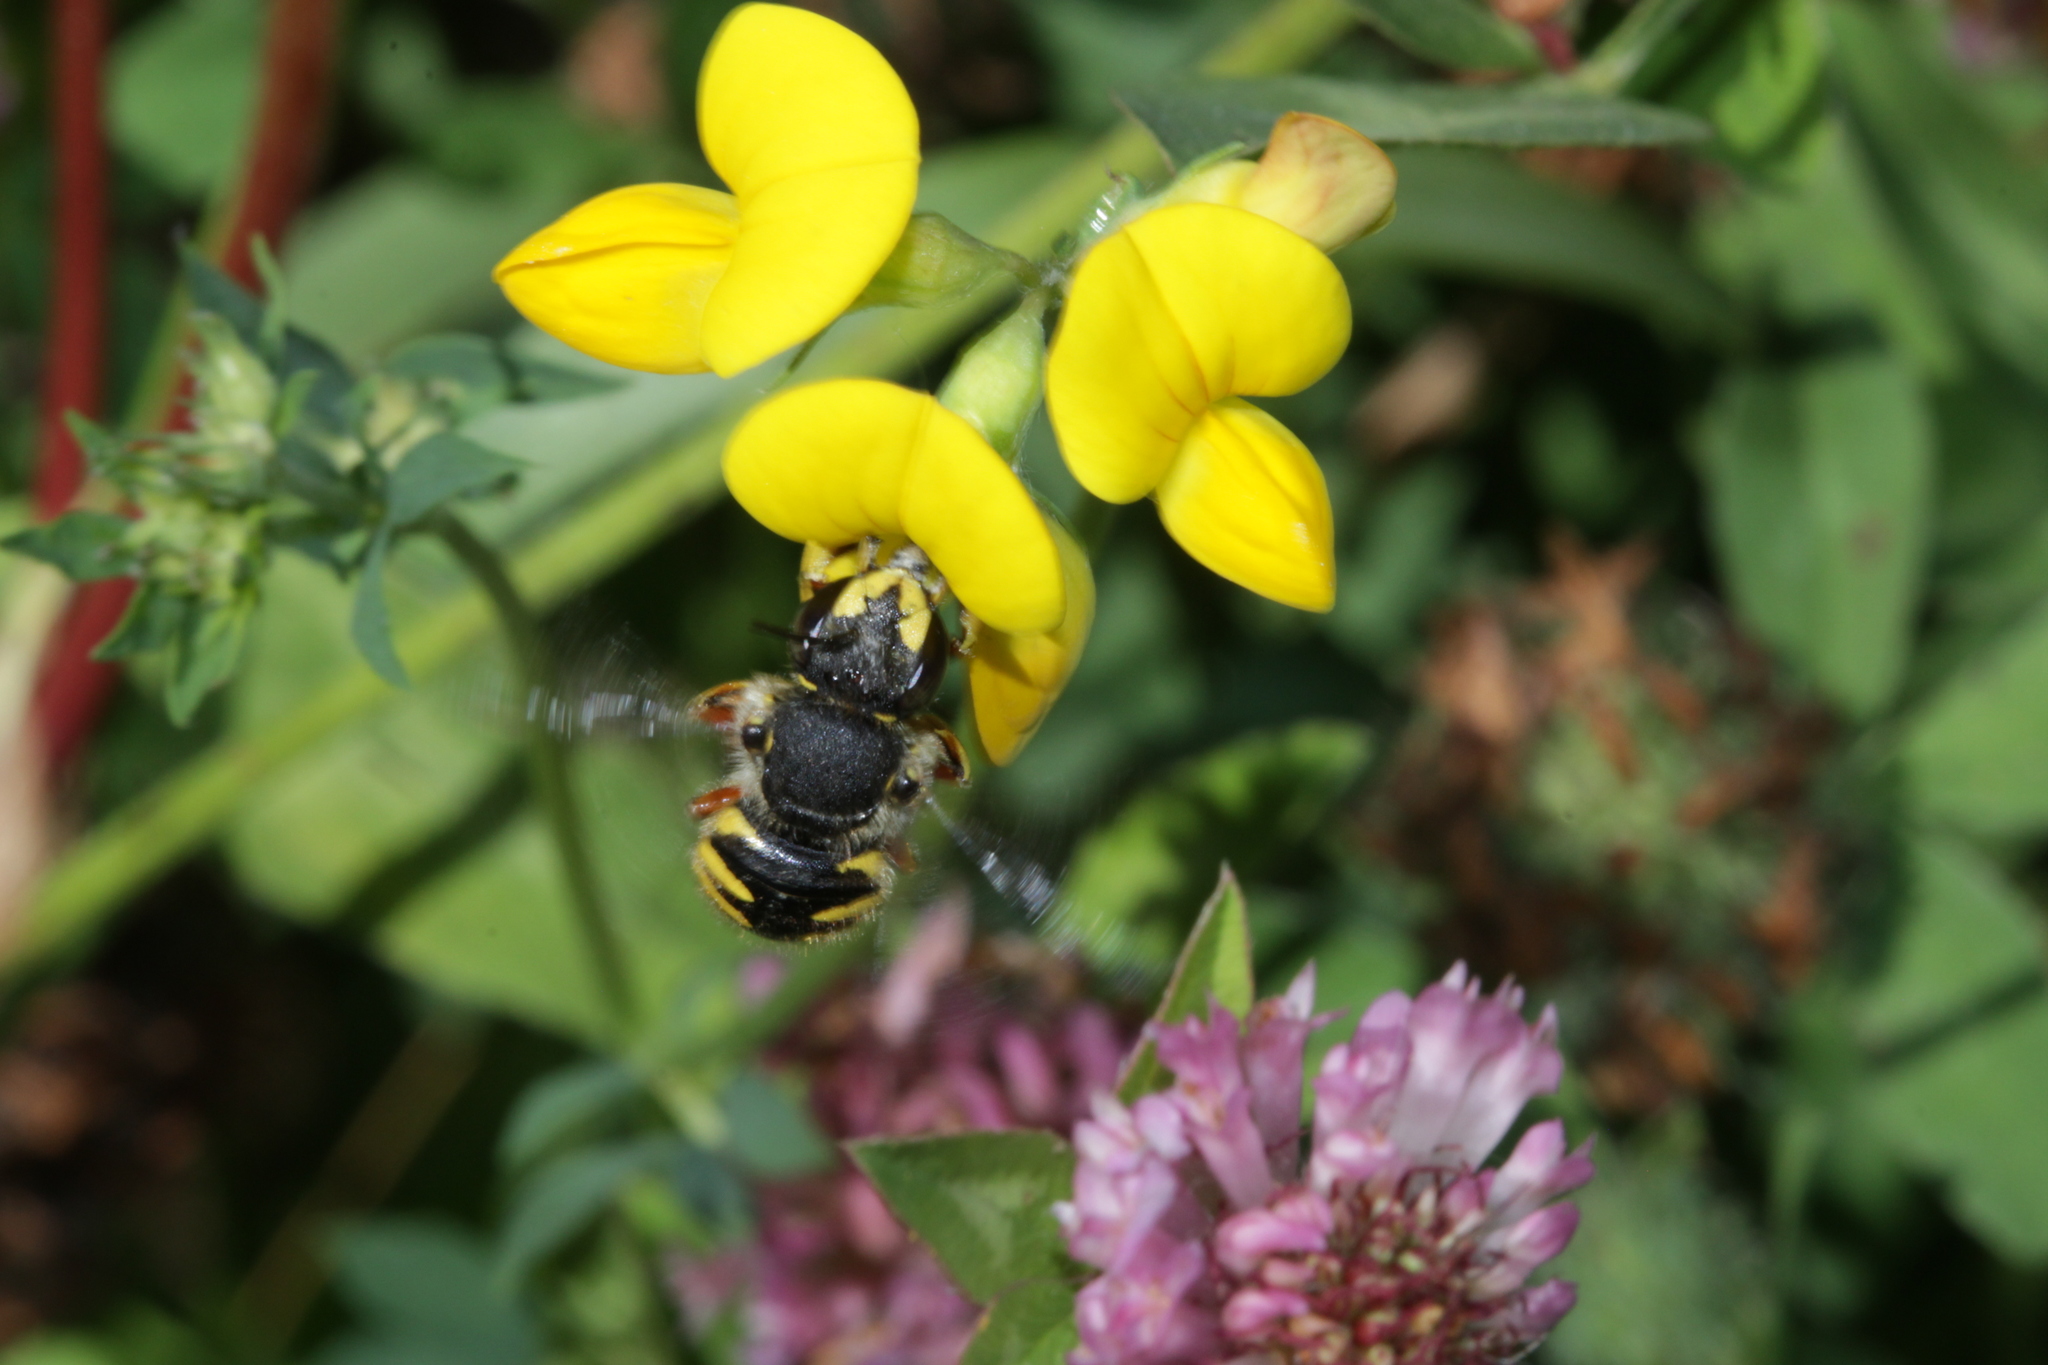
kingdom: Animalia
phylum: Arthropoda
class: Insecta
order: Hymenoptera
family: Megachilidae
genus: Anthidium
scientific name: Anthidium manicatum
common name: Wool carder bee
